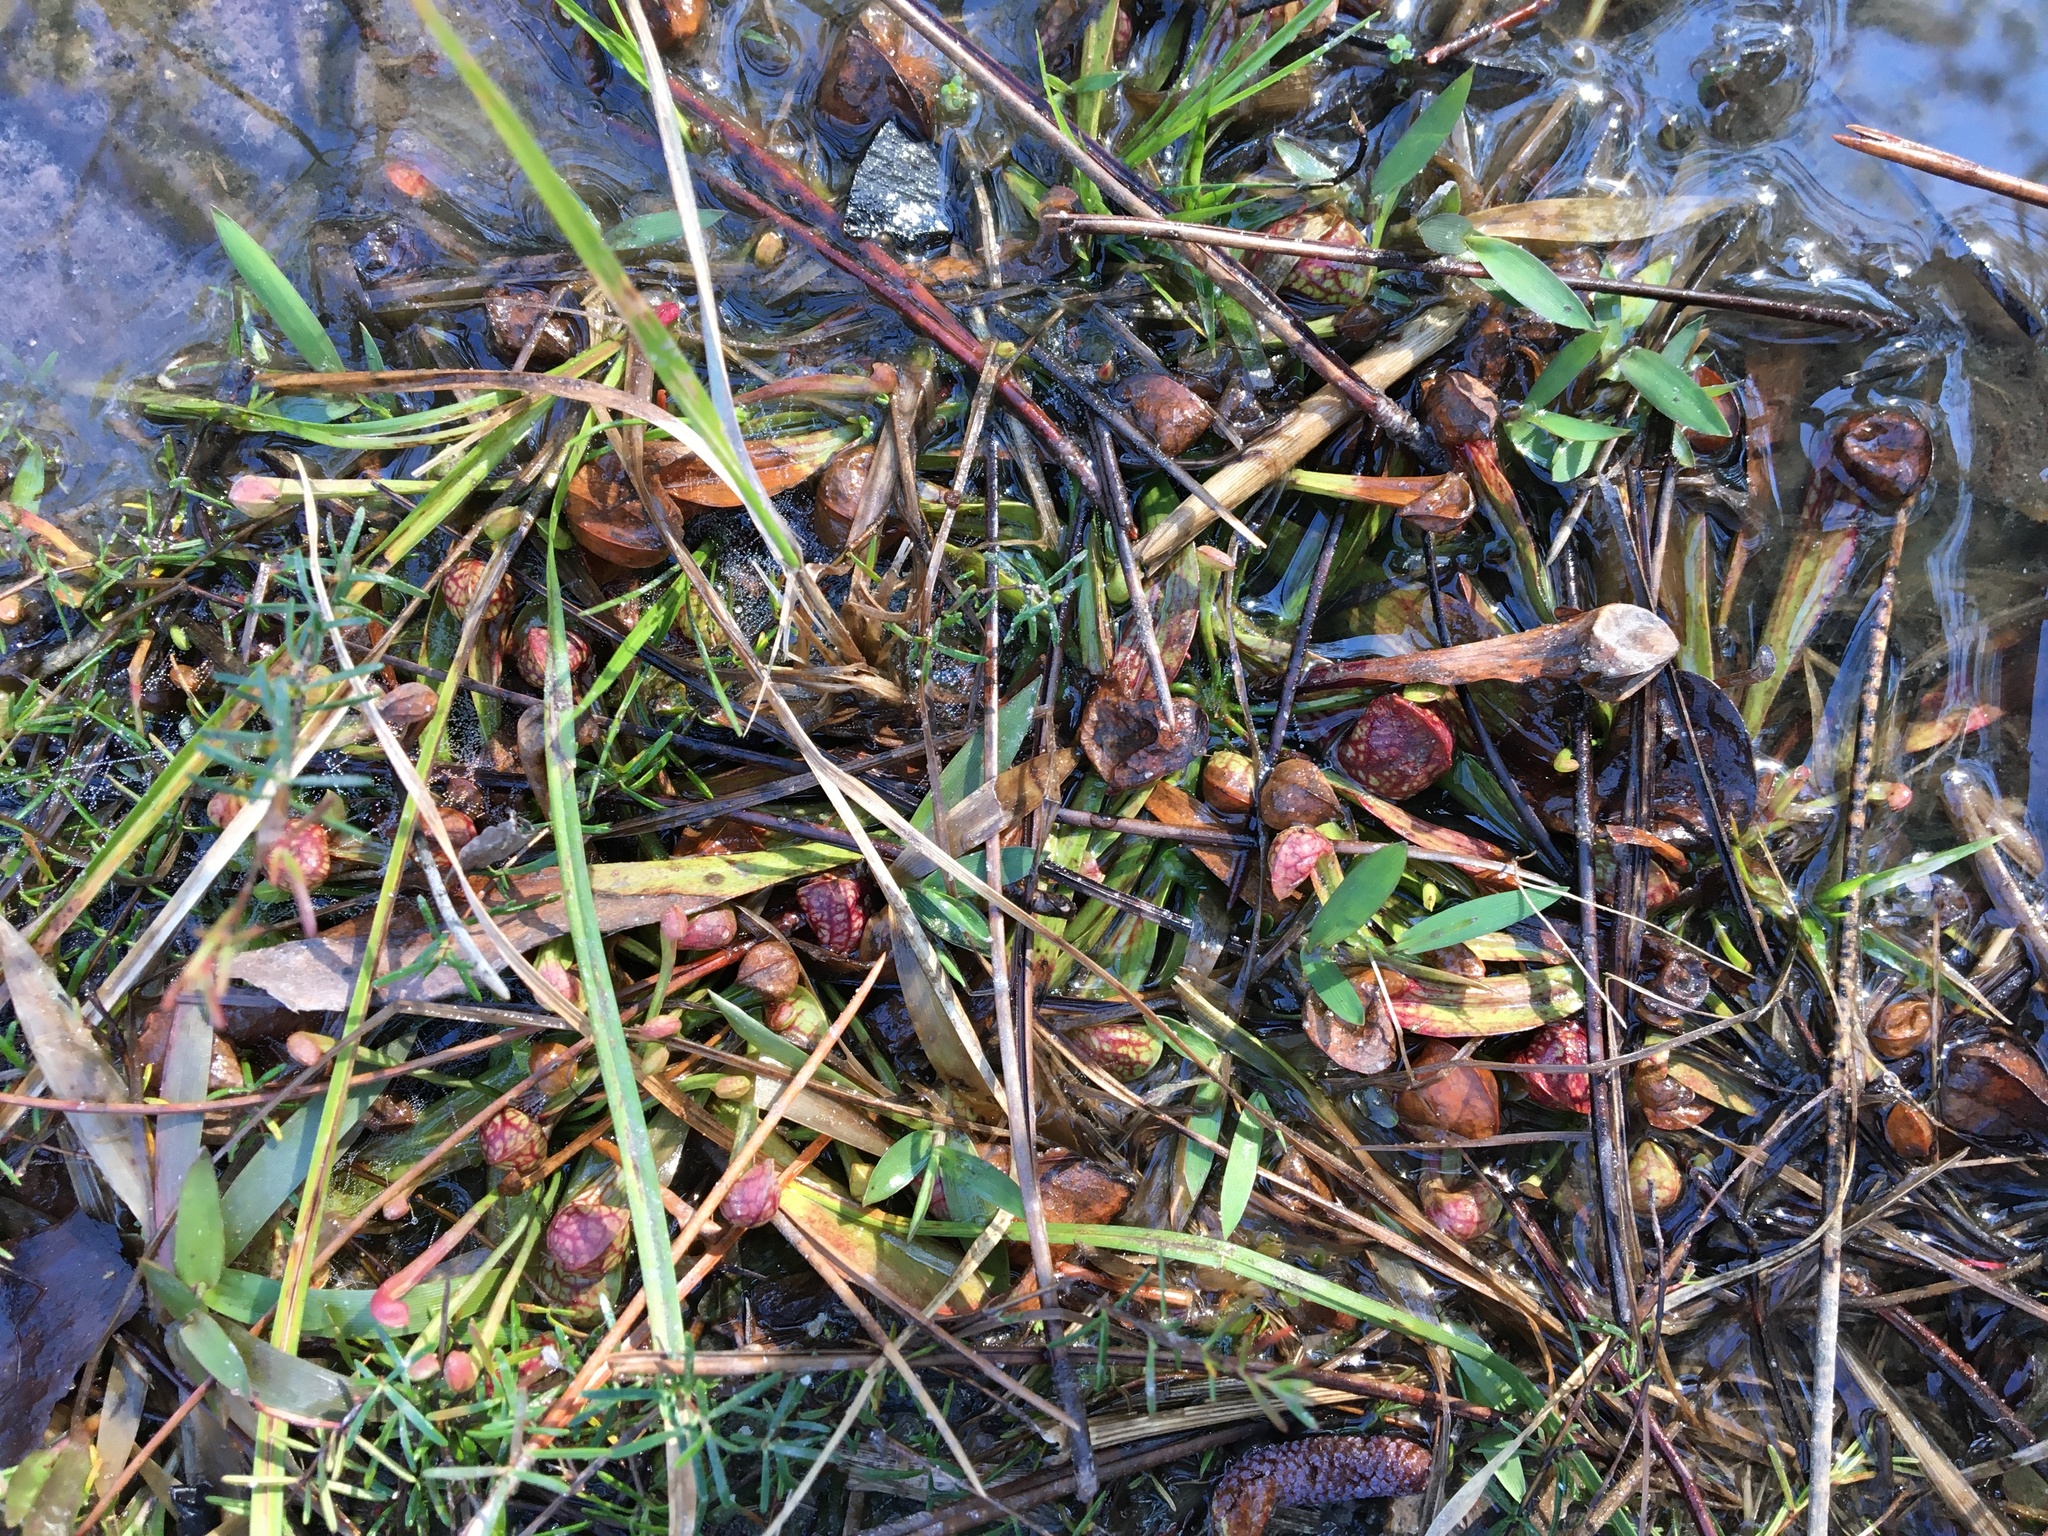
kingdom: Plantae
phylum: Tracheophyta
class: Magnoliopsida
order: Ericales
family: Sarraceniaceae
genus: Sarracenia
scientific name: Sarracenia psittacina
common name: Parrot pitcherplant
